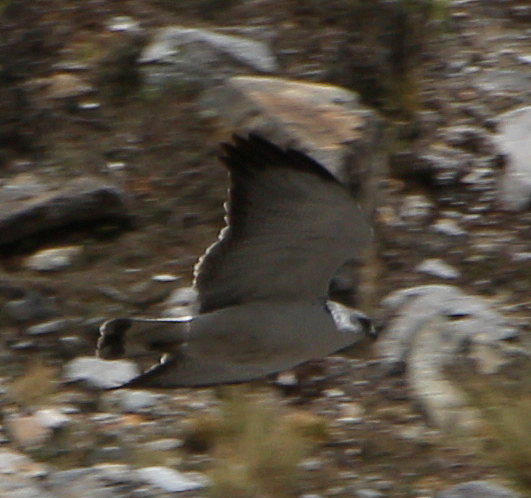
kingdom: Animalia
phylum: Chordata
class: Aves
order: Accipitriformes
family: Accipitridae
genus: Buteo
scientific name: Buteo polyosoma
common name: Variable hawk
